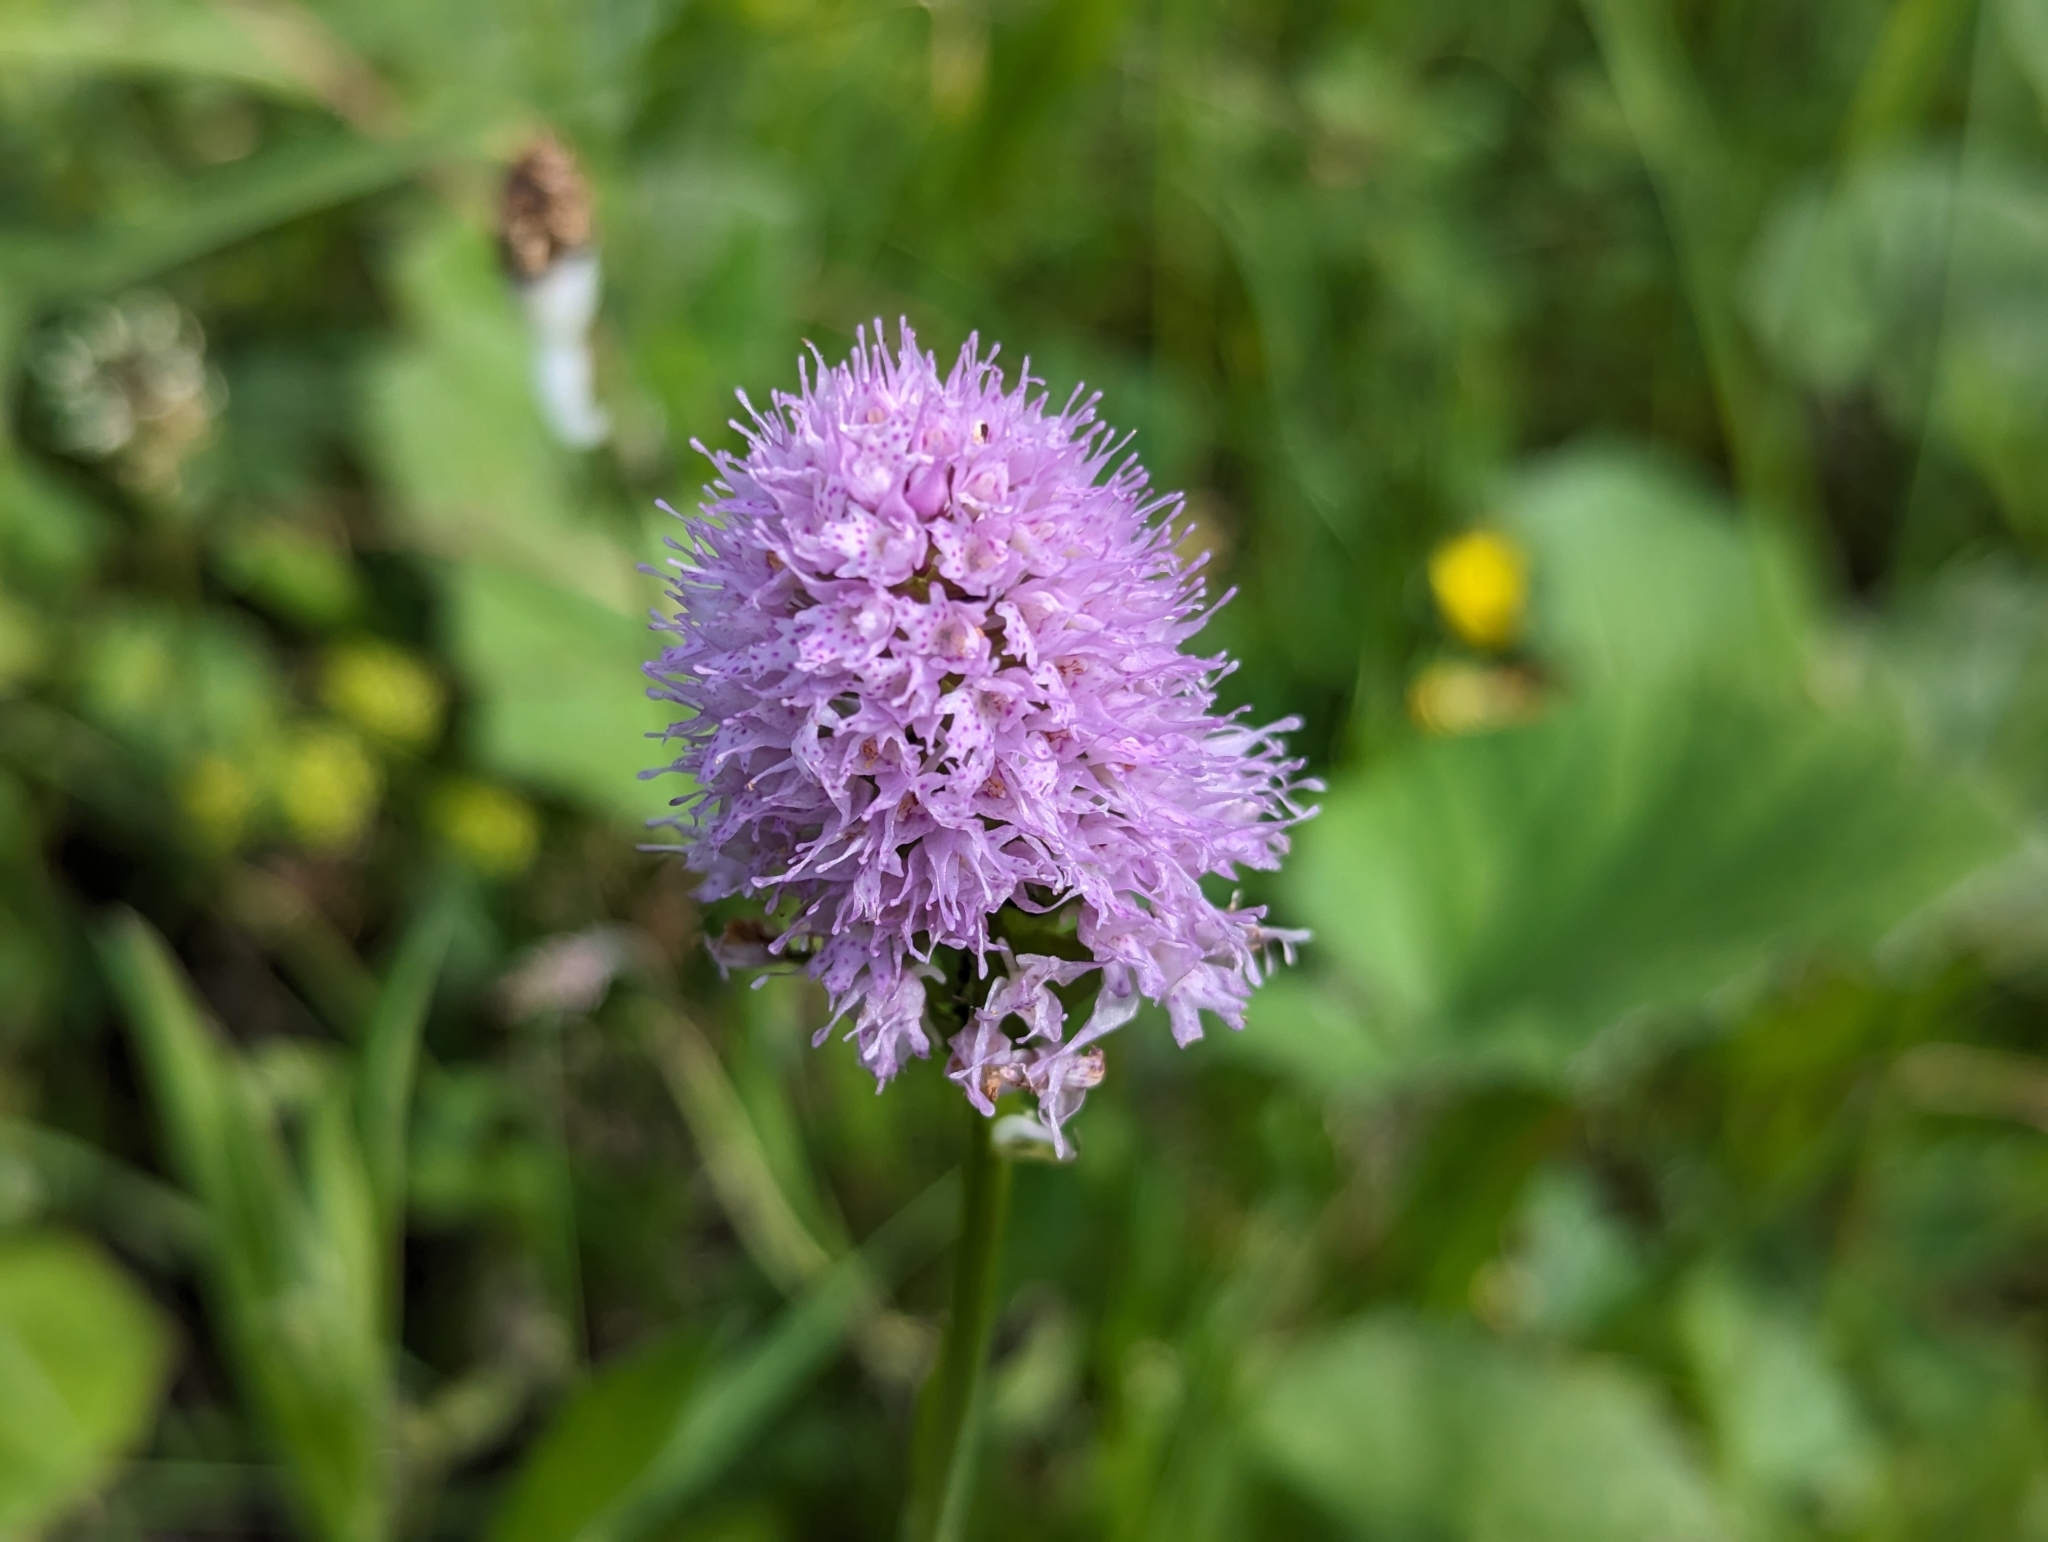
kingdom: Plantae
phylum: Tracheophyta
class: Liliopsida
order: Asparagales
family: Orchidaceae
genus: Traunsteinera
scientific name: Traunsteinera globosa
